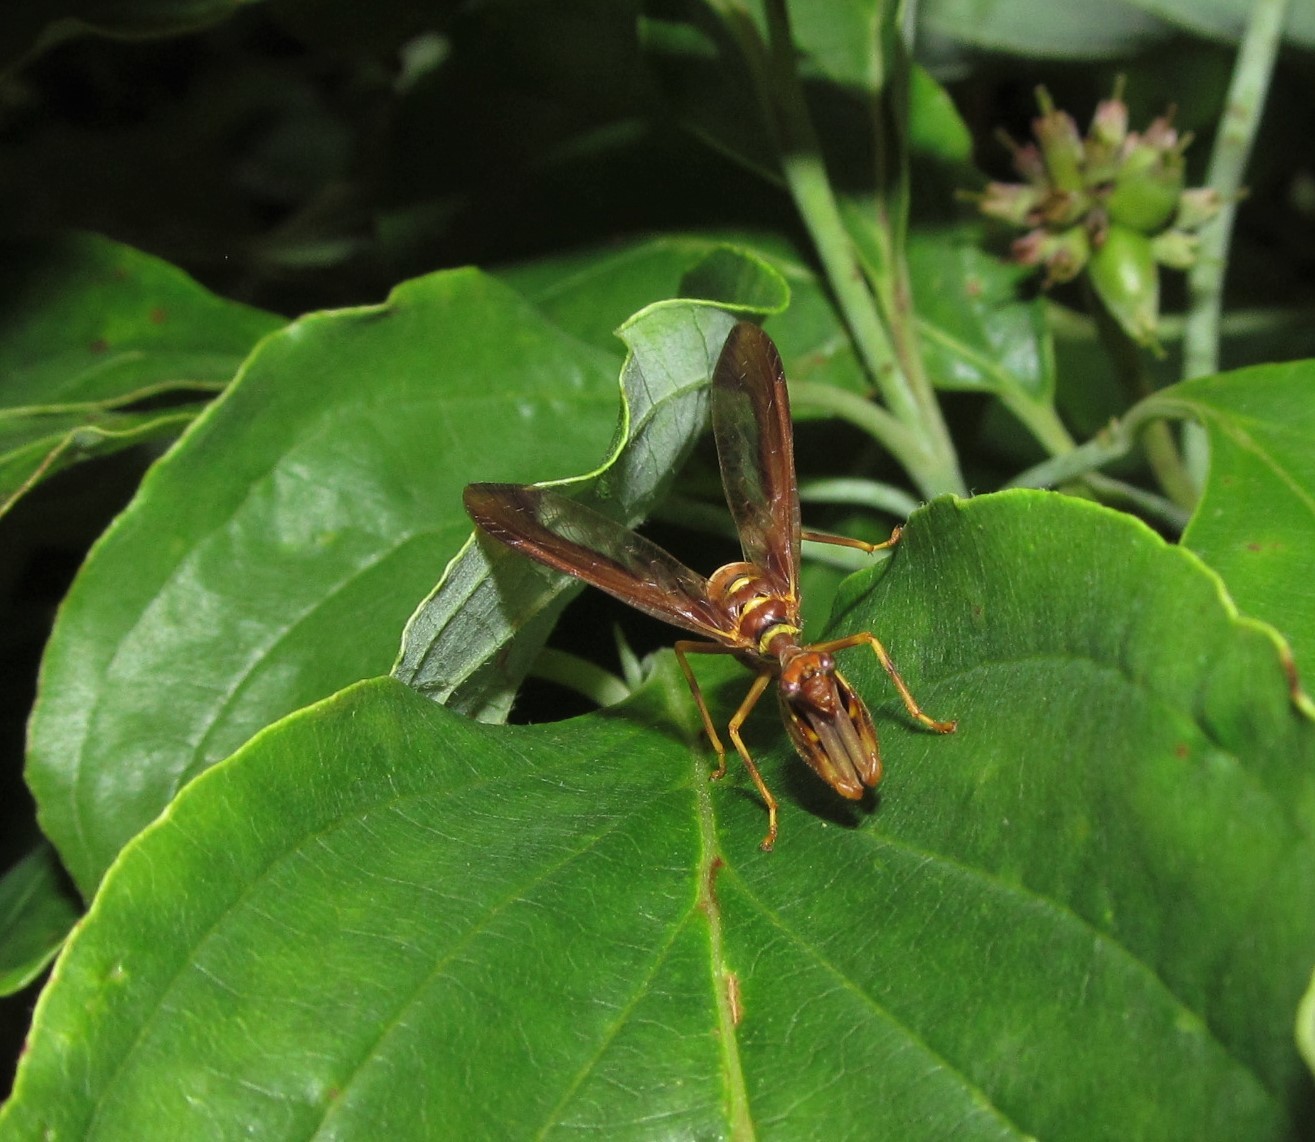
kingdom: Animalia
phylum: Arthropoda
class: Insecta
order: Neuroptera
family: Mantispidae
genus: Climaciella
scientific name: Climaciella brunnea
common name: Brown wasp mantidfly
